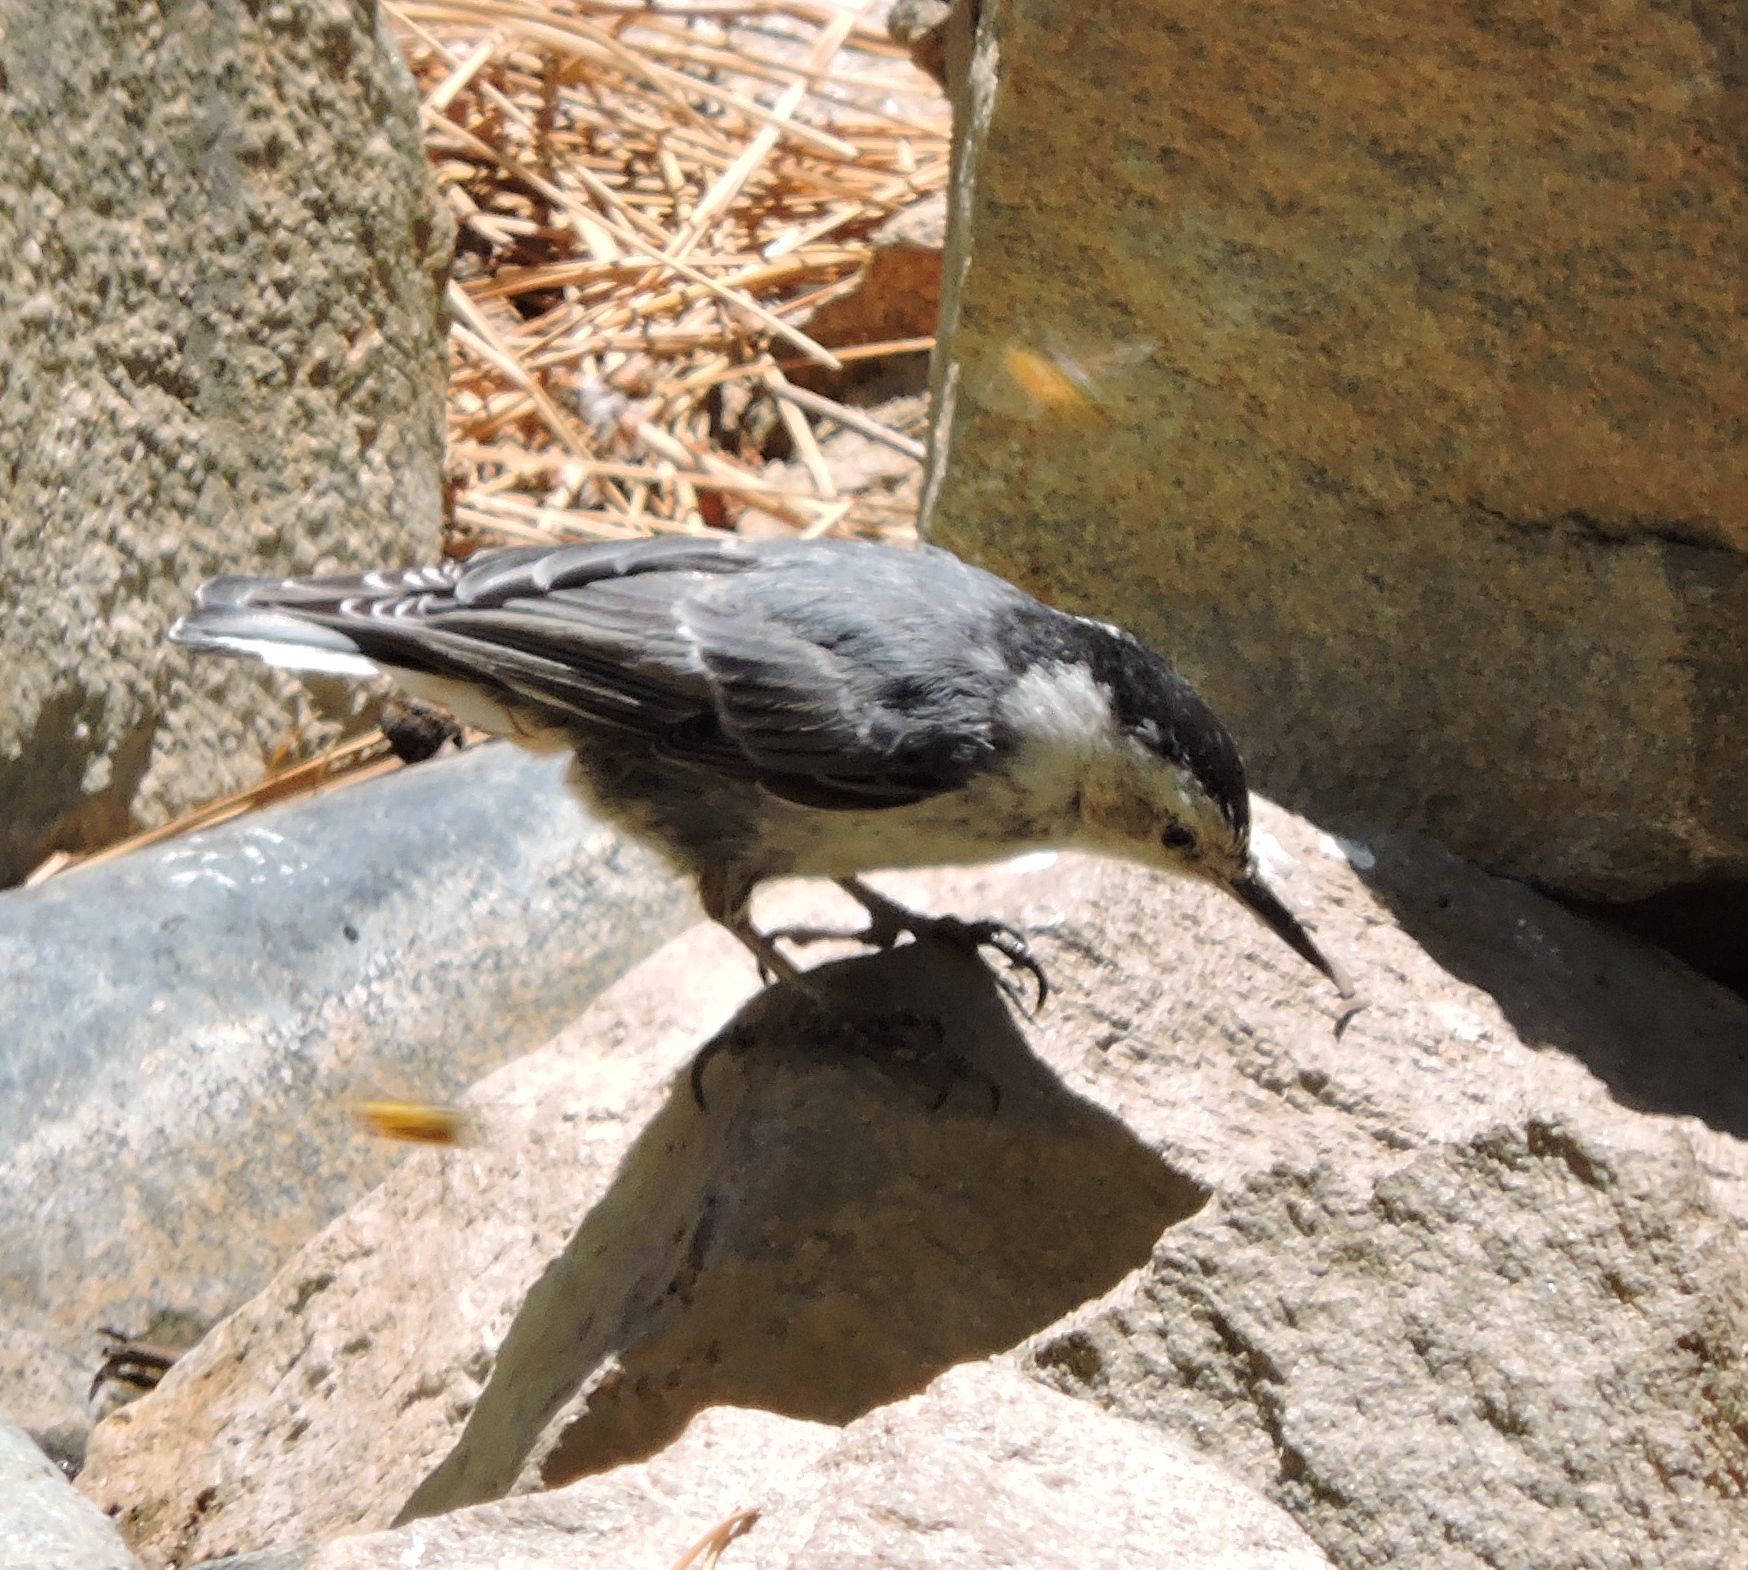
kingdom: Animalia
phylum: Chordata
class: Aves
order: Passeriformes
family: Sittidae
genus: Sitta
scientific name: Sitta carolinensis
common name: White-breasted nuthatch
